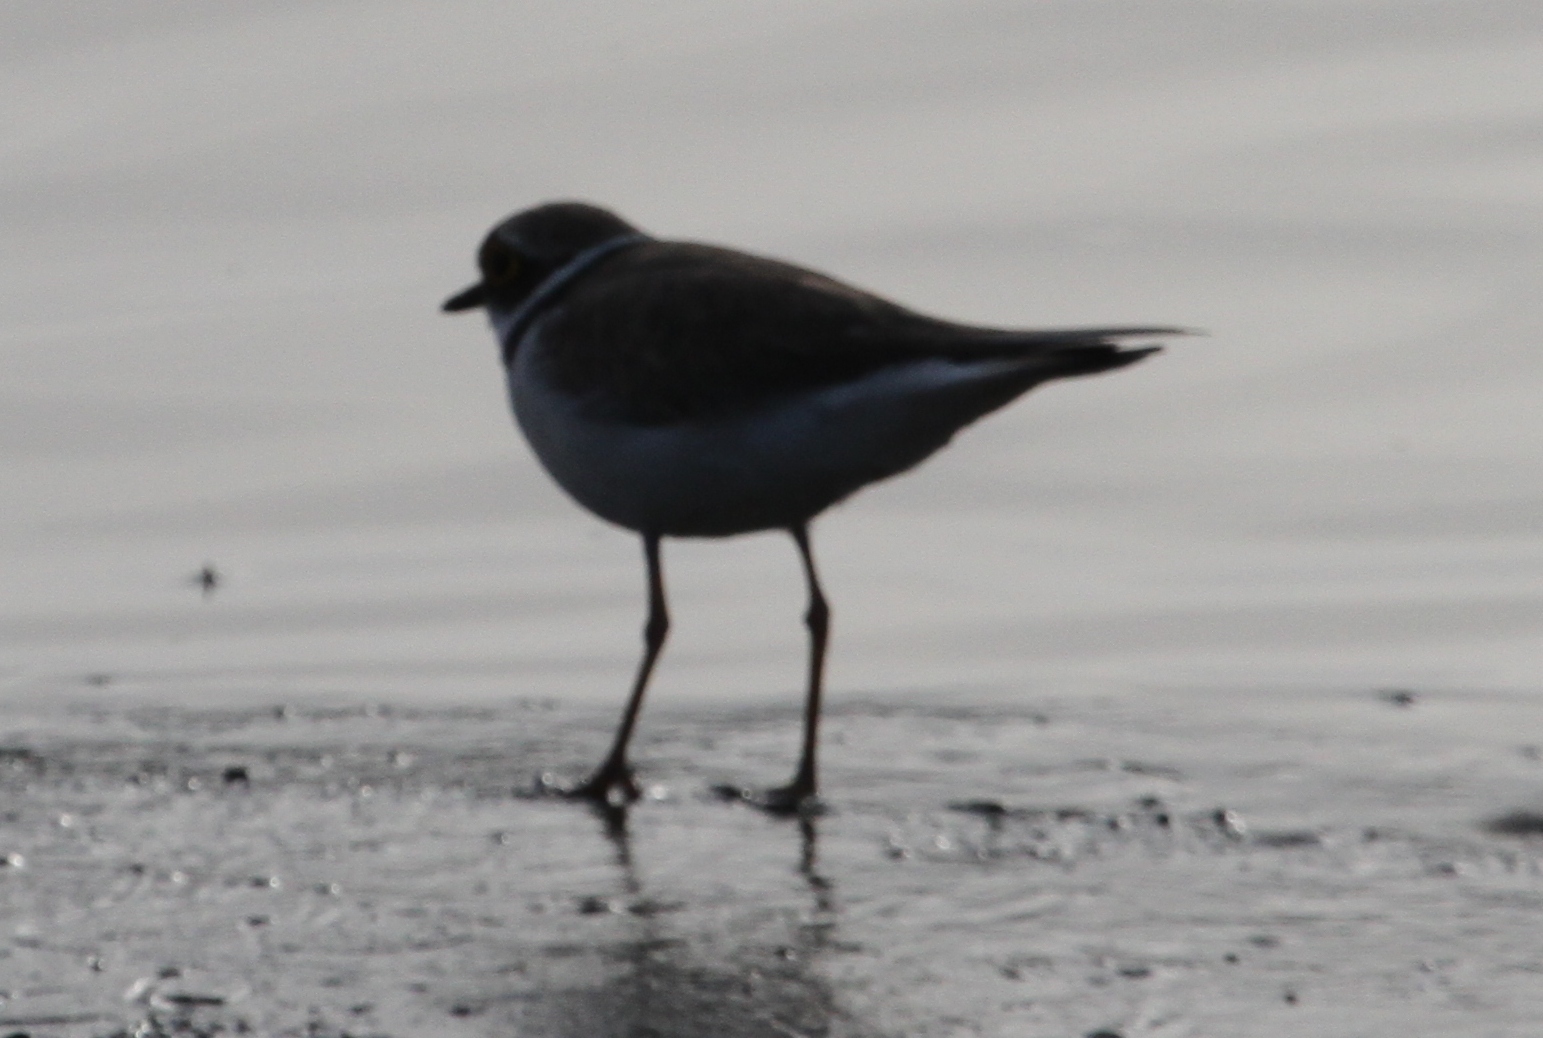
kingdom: Animalia
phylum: Chordata
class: Aves
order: Charadriiformes
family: Charadriidae
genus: Charadrius
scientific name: Charadrius dubius
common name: Little ringed plover
